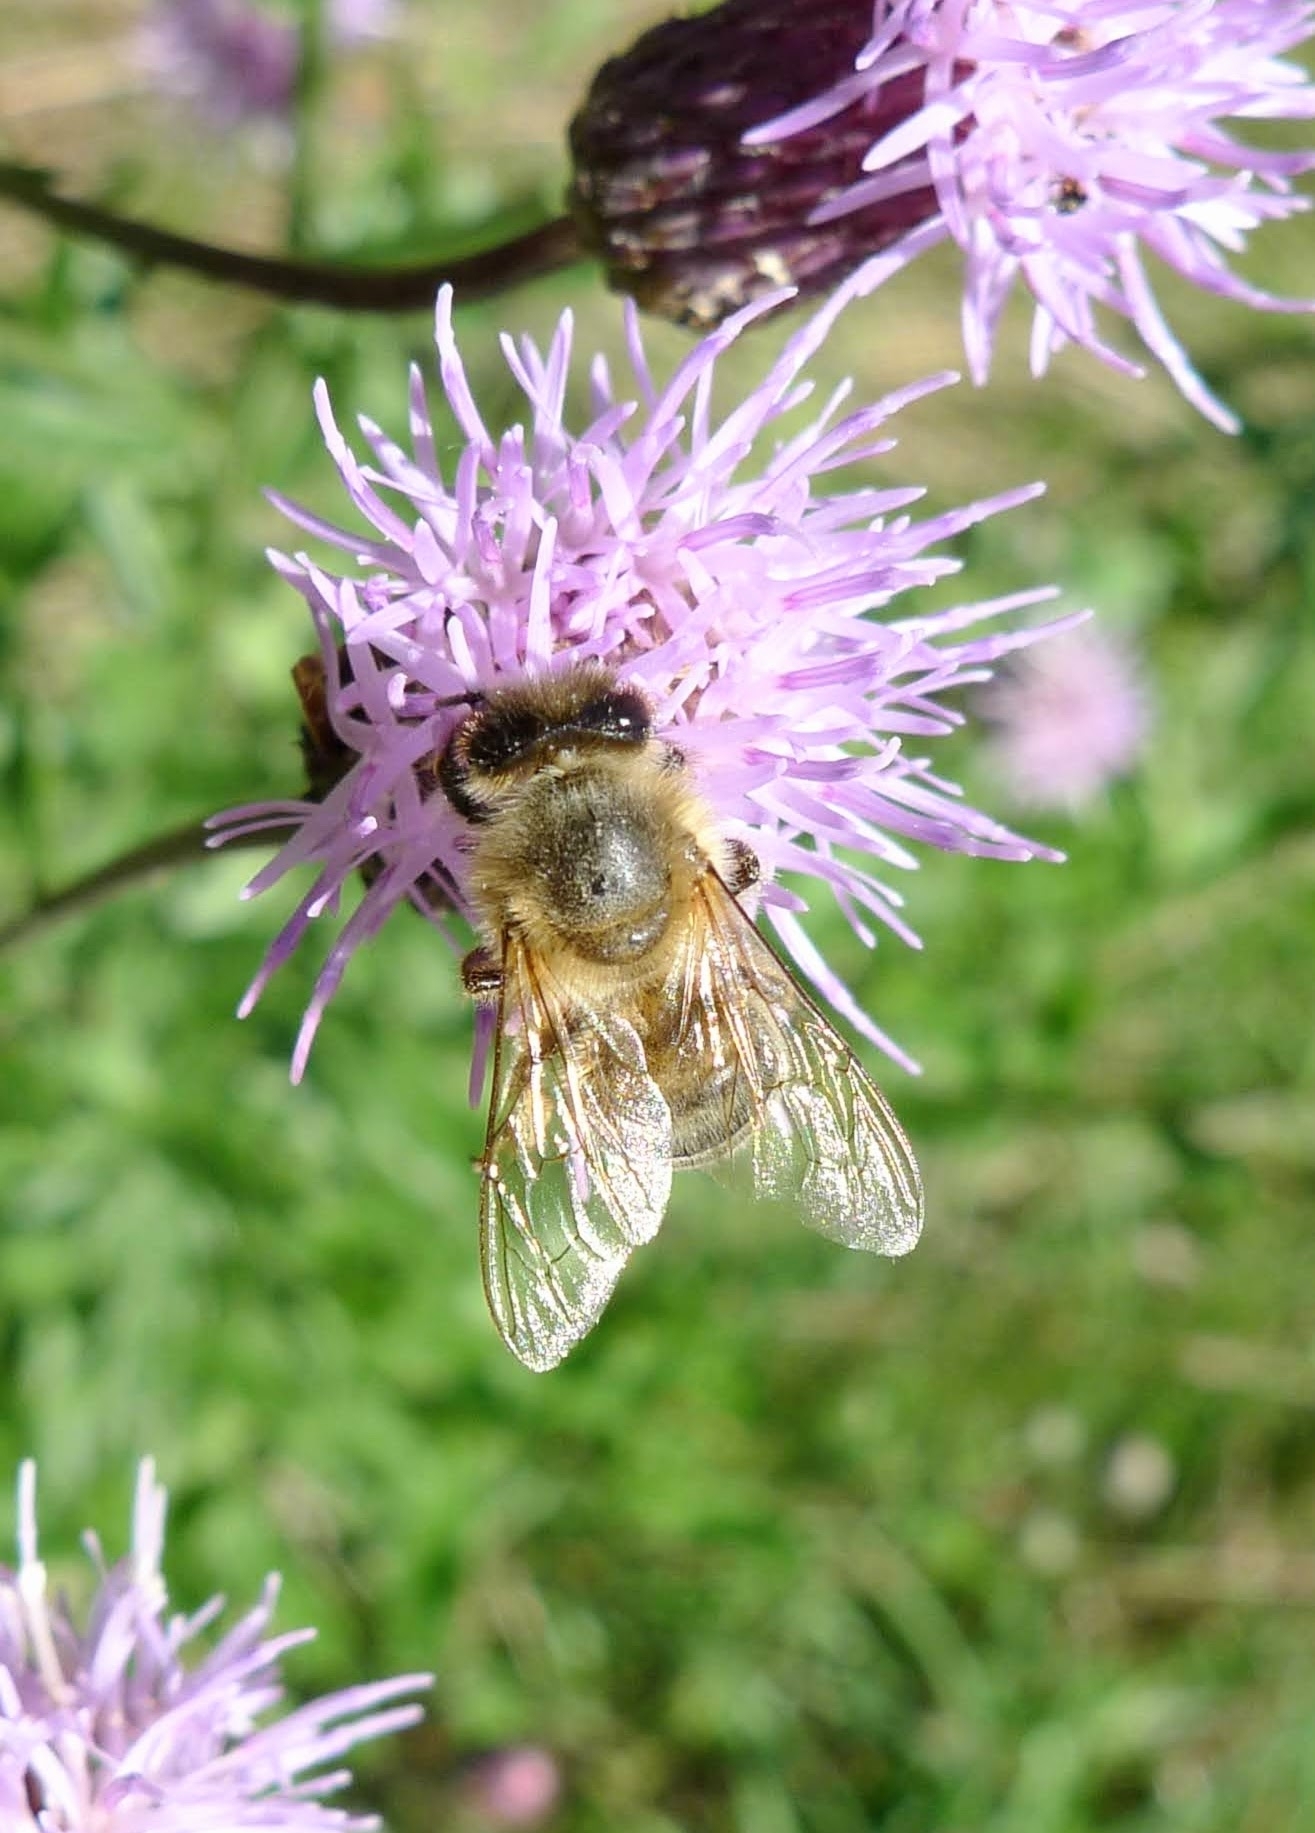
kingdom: Animalia
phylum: Arthropoda
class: Insecta
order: Hymenoptera
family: Apidae
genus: Apis
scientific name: Apis mellifera
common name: Honey bee
